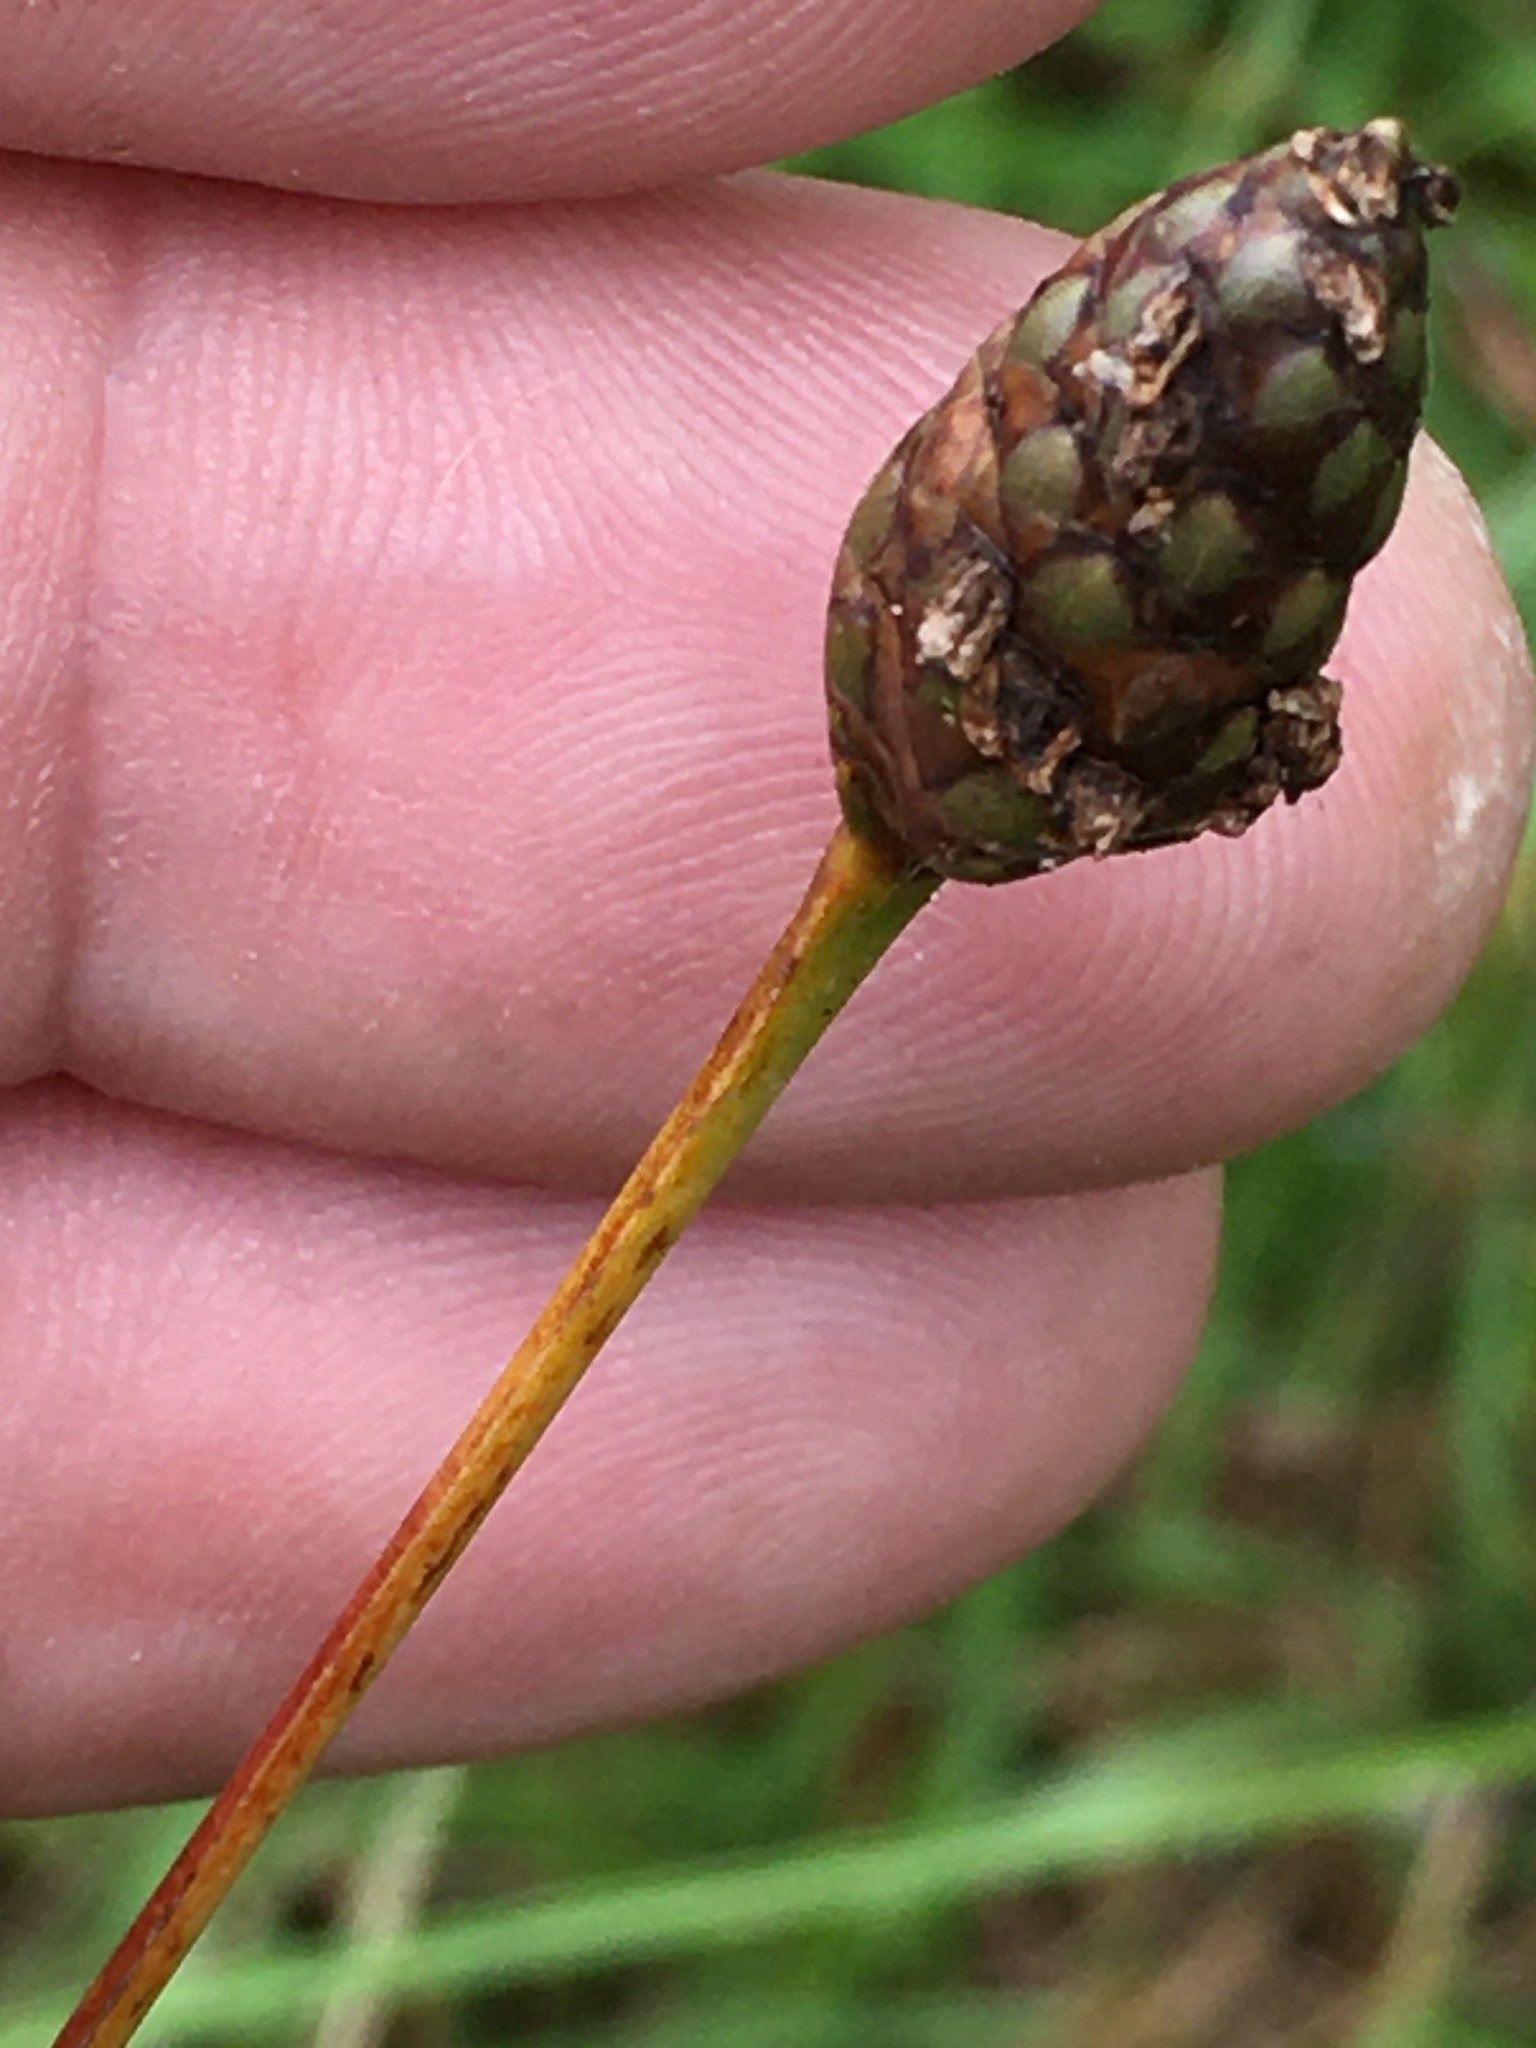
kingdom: Plantae
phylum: Tracheophyta
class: Liliopsida
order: Poales
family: Xyridaceae
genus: Xyris
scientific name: Xyris difformis
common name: Bog yellow-eyed-grass
